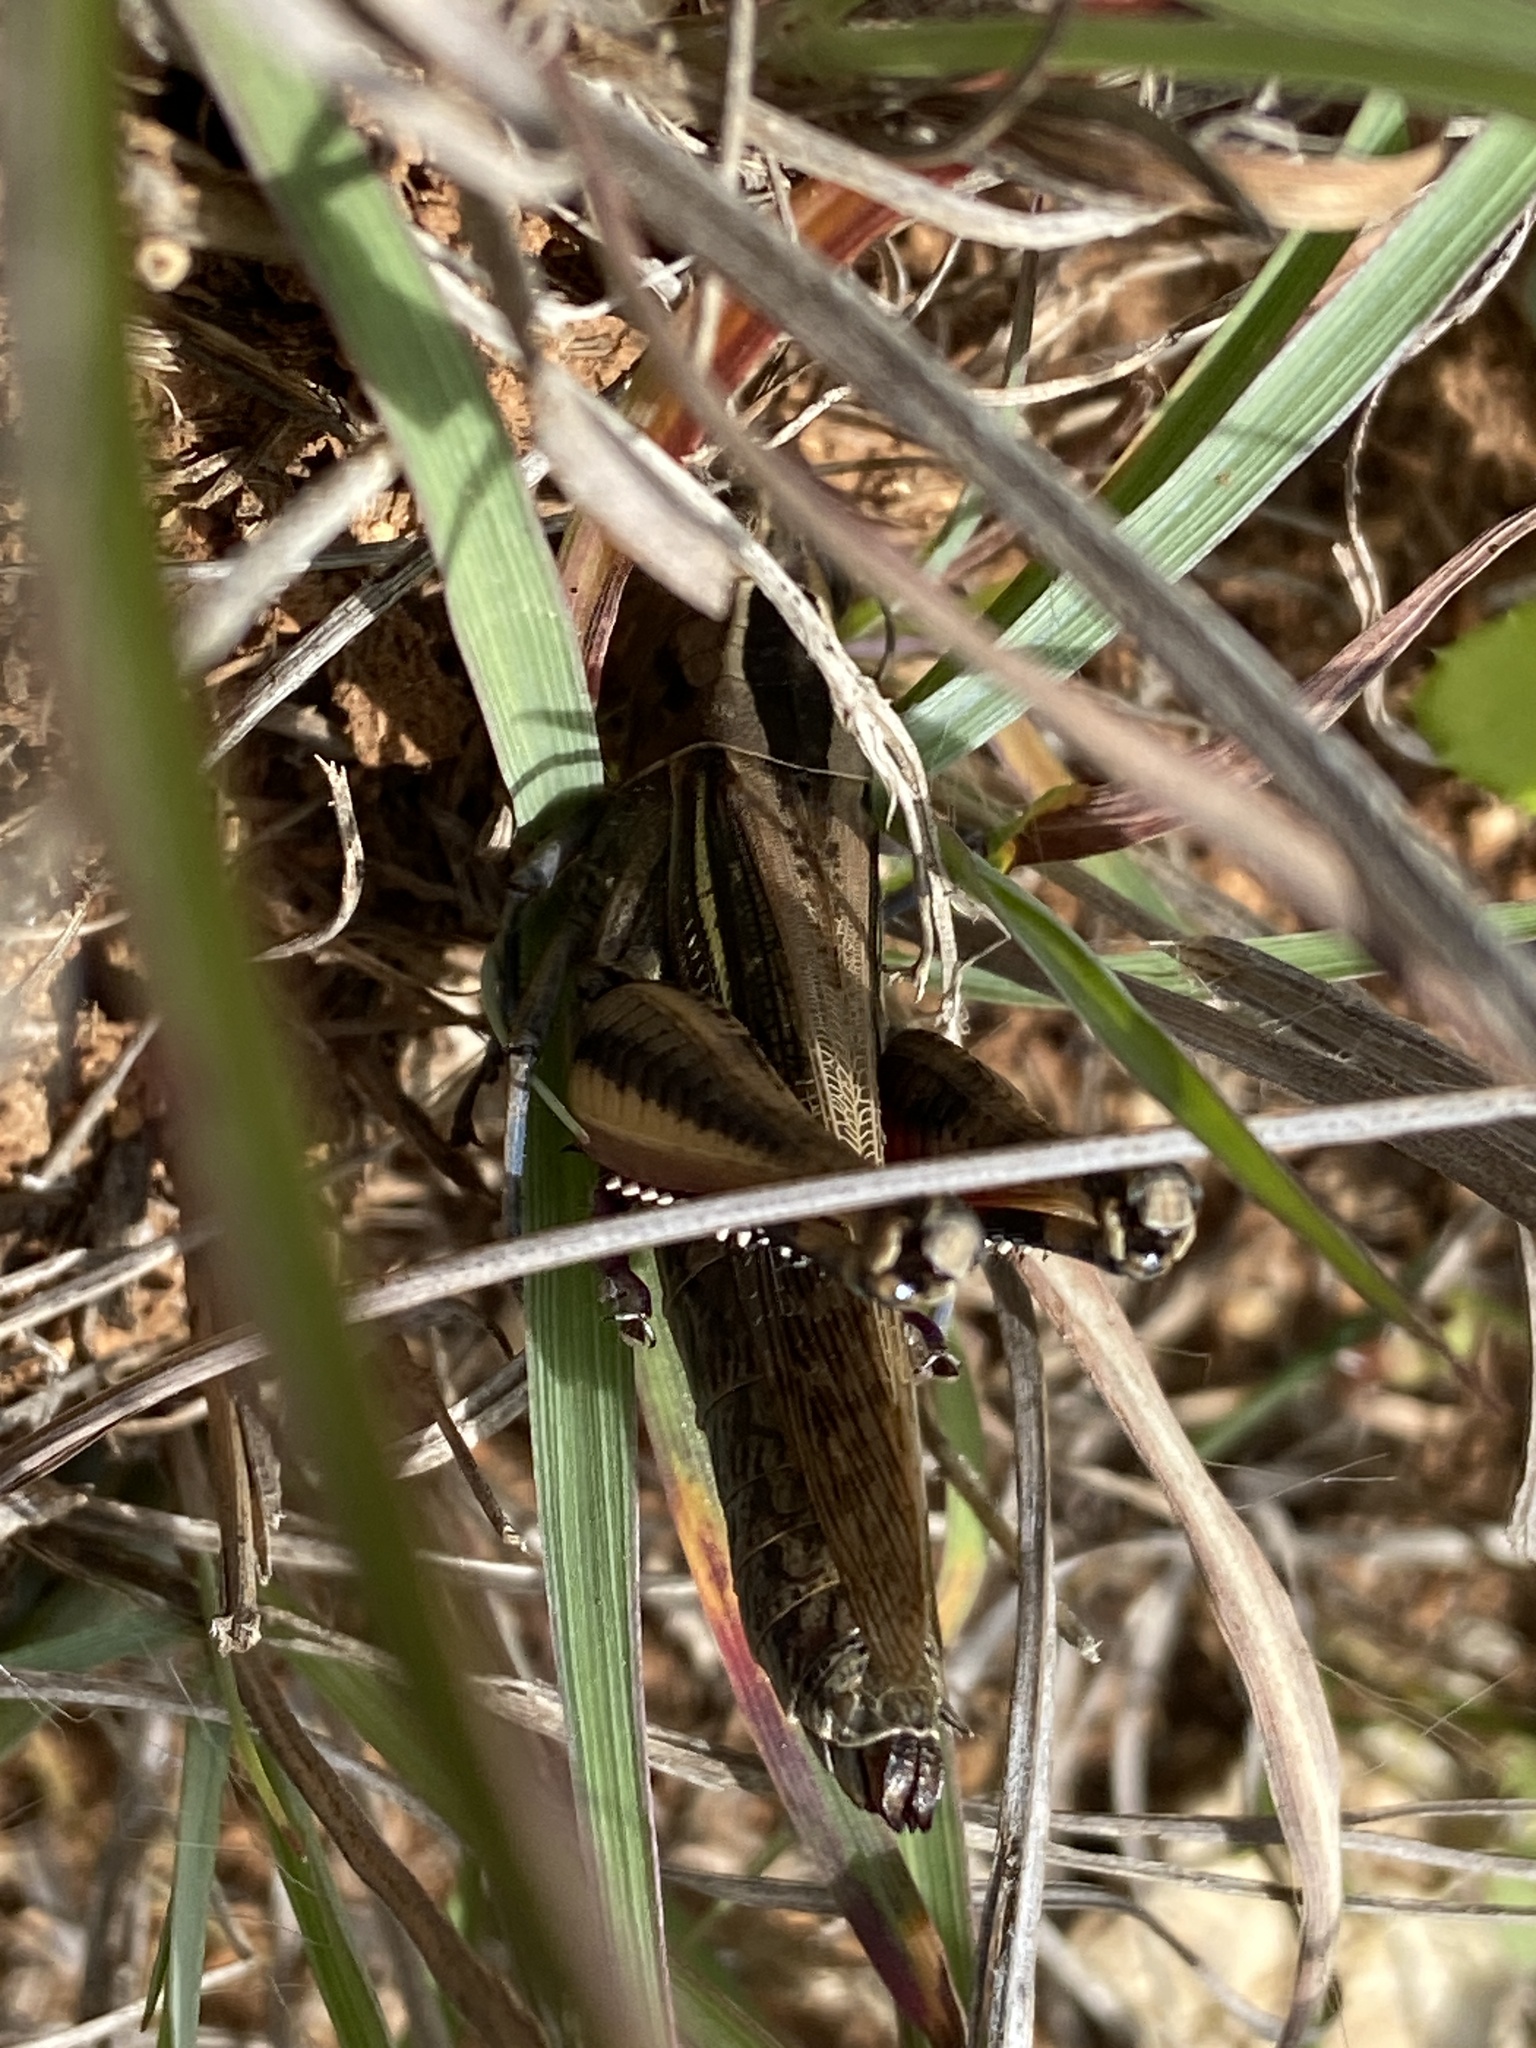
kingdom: Animalia
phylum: Arthropoda
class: Insecta
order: Orthoptera
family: Acrididae
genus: Eyprepocnemis
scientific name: Eyprepocnemis plorans
